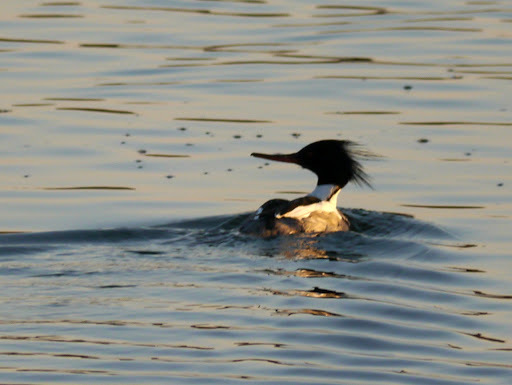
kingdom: Animalia
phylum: Chordata
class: Aves
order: Anseriformes
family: Anatidae
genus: Mergus
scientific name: Mergus serrator
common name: Red-breasted merganser
